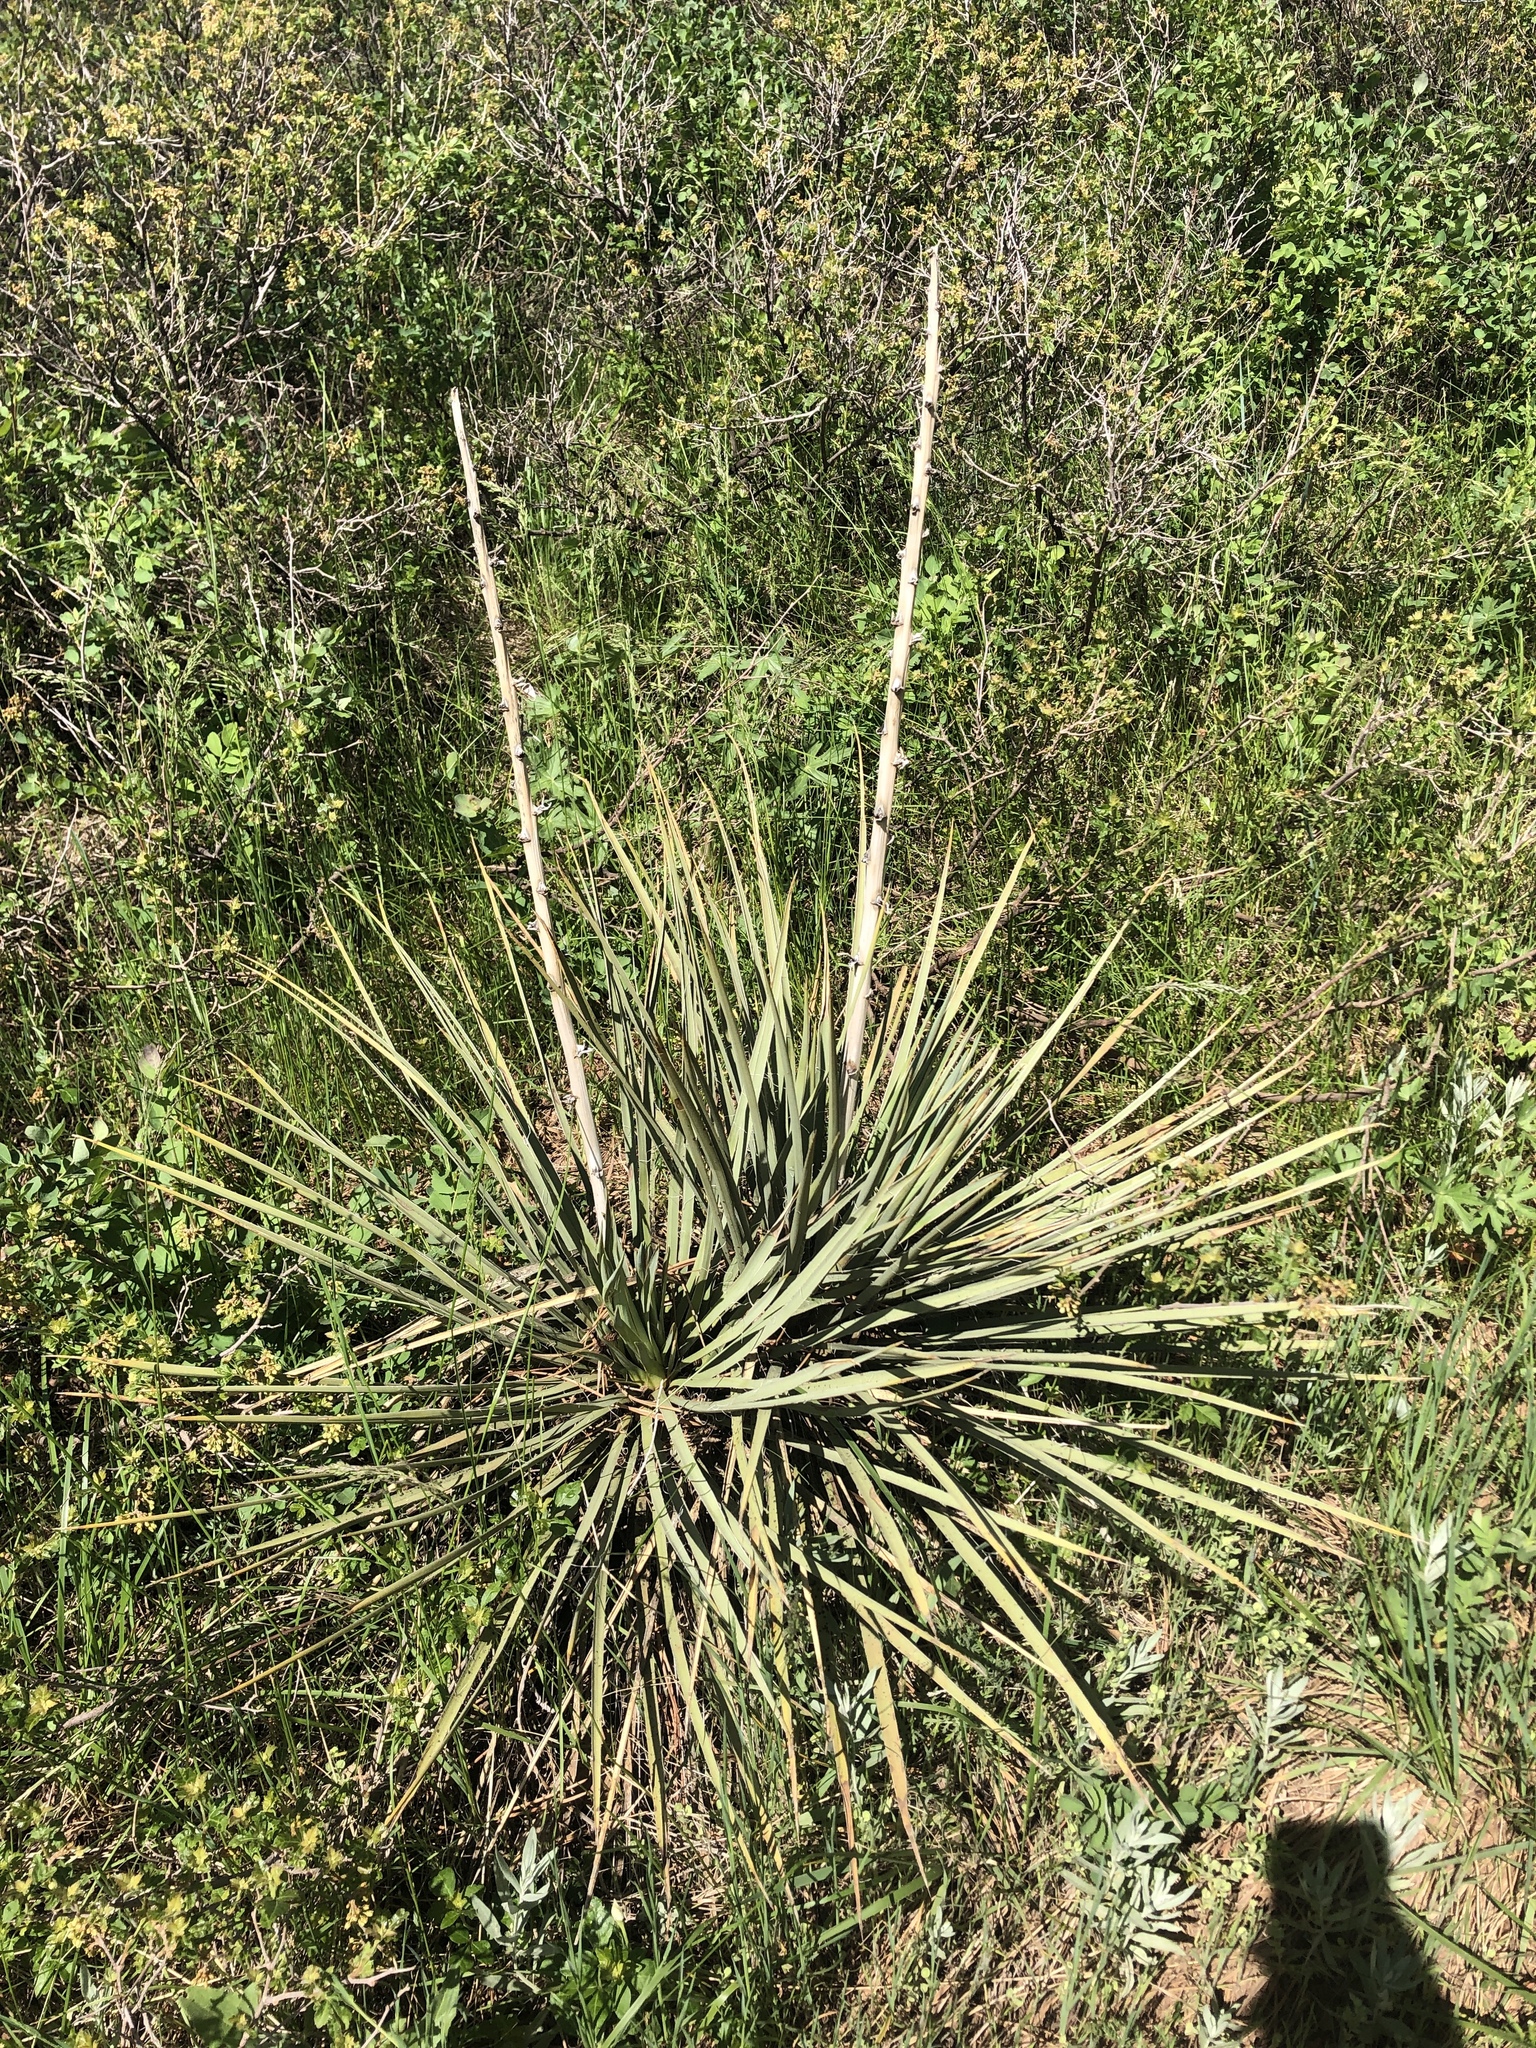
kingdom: Plantae
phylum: Tracheophyta
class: Liliopsida
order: Asparagales
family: Asparagaceae
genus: Yucca
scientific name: Yucca glauca
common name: Great plains yucca
